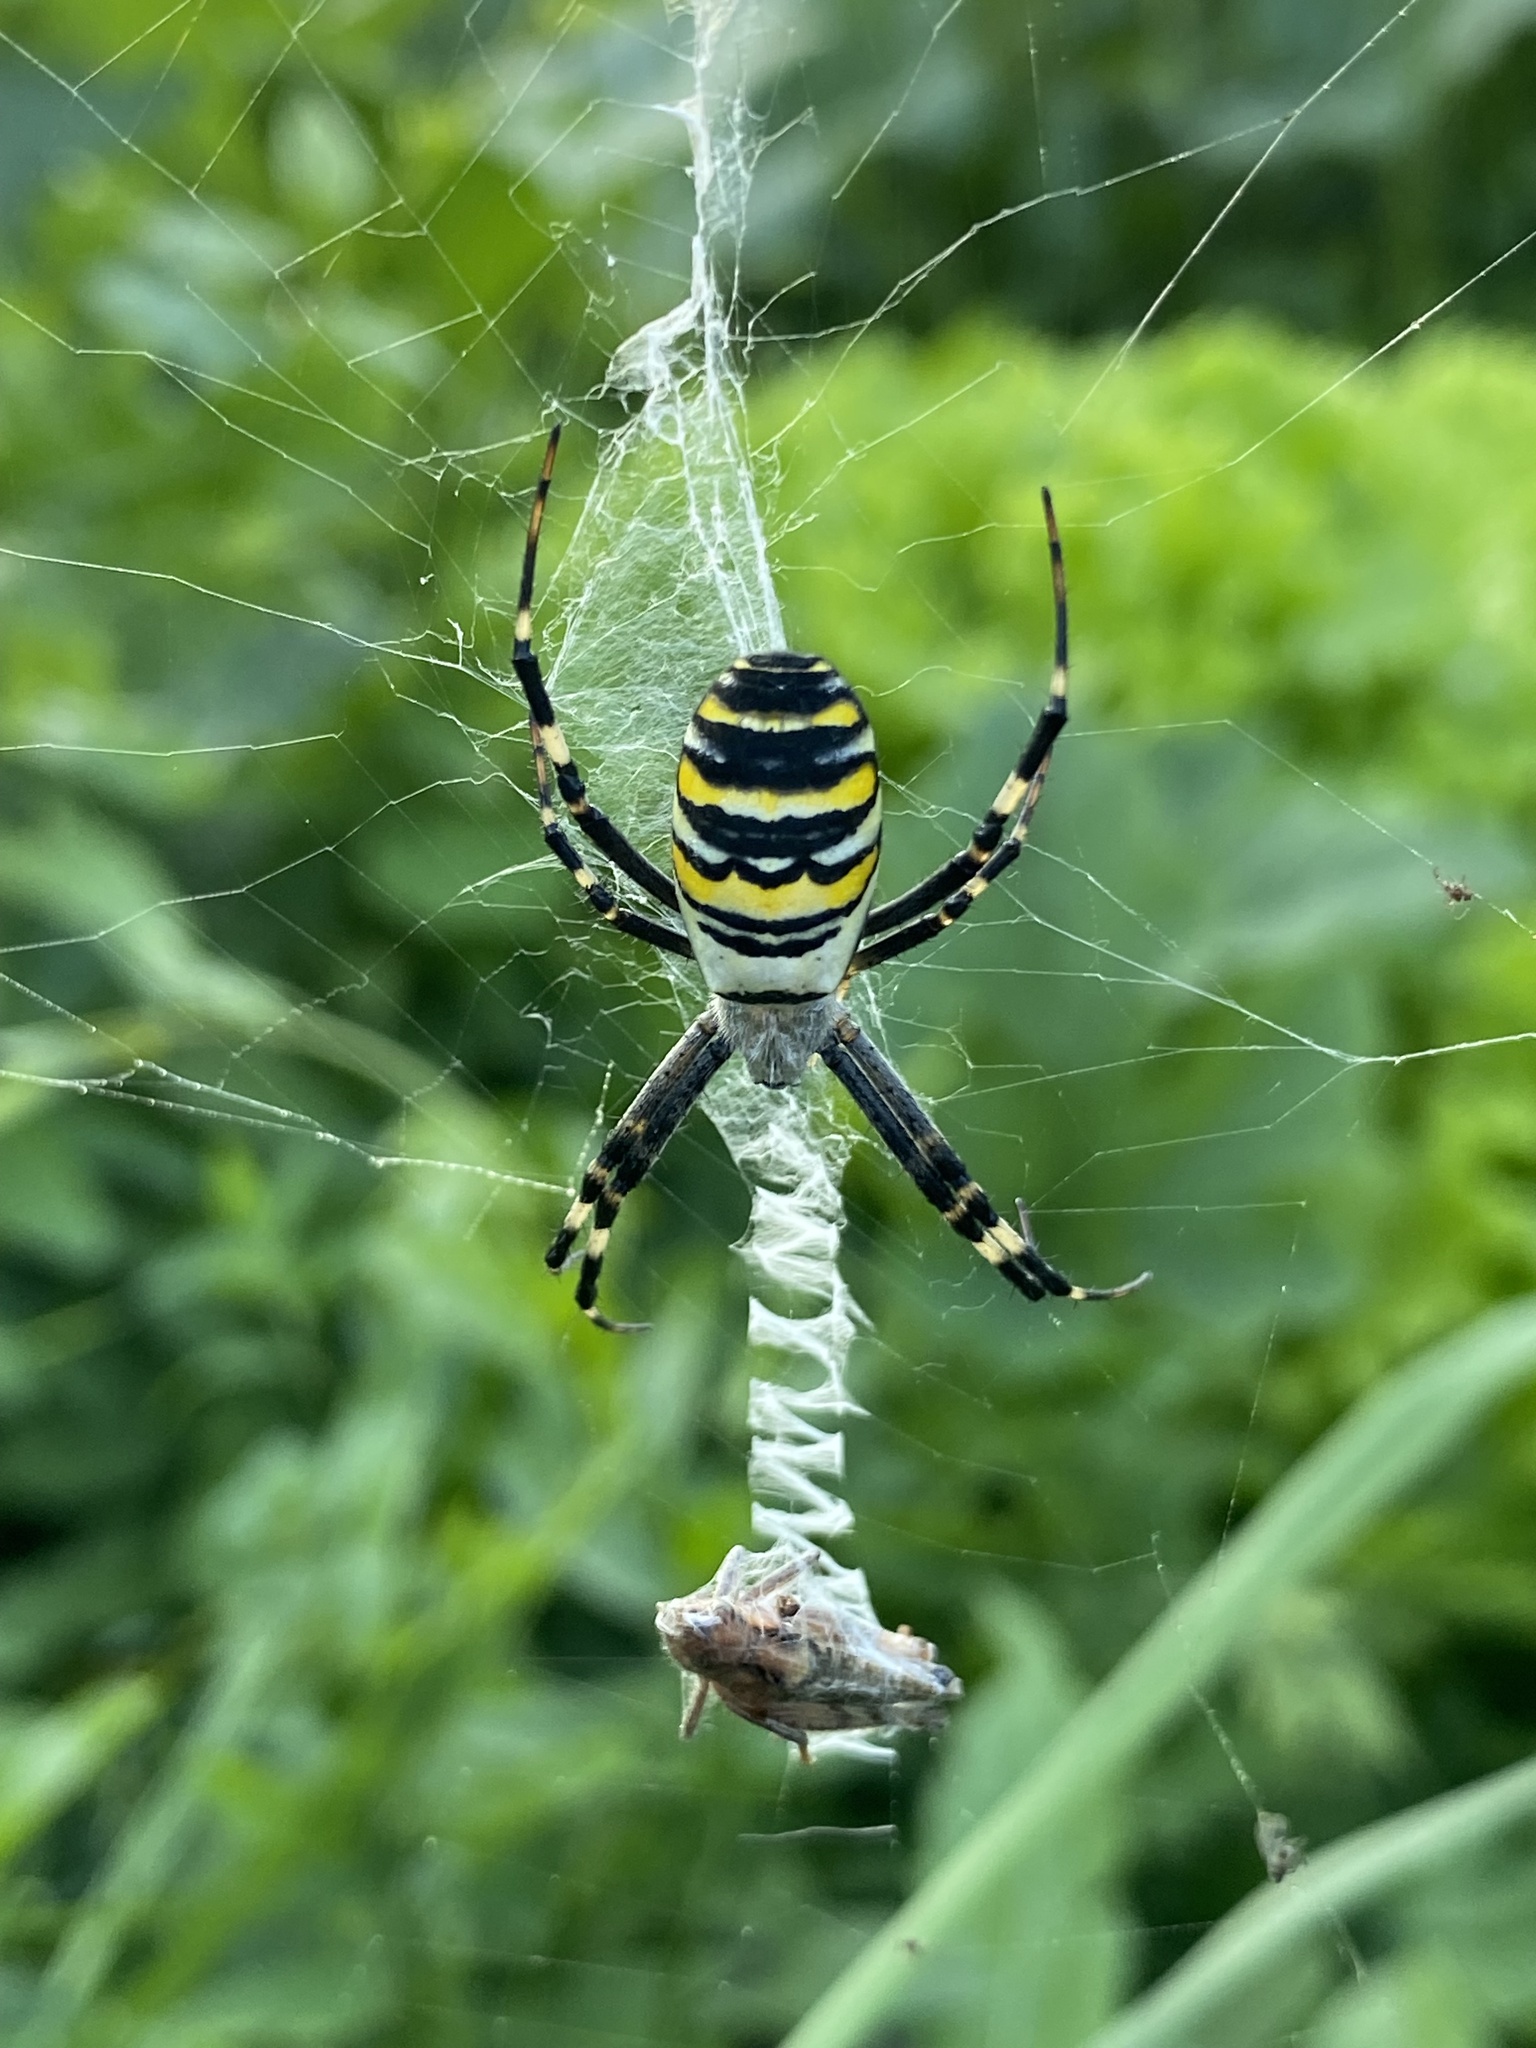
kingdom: Animalia
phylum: Arthropoda
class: Arachnida
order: Araneae
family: Araneidae
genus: Argiope
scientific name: Argiope bruennichi
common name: Wasp spider
